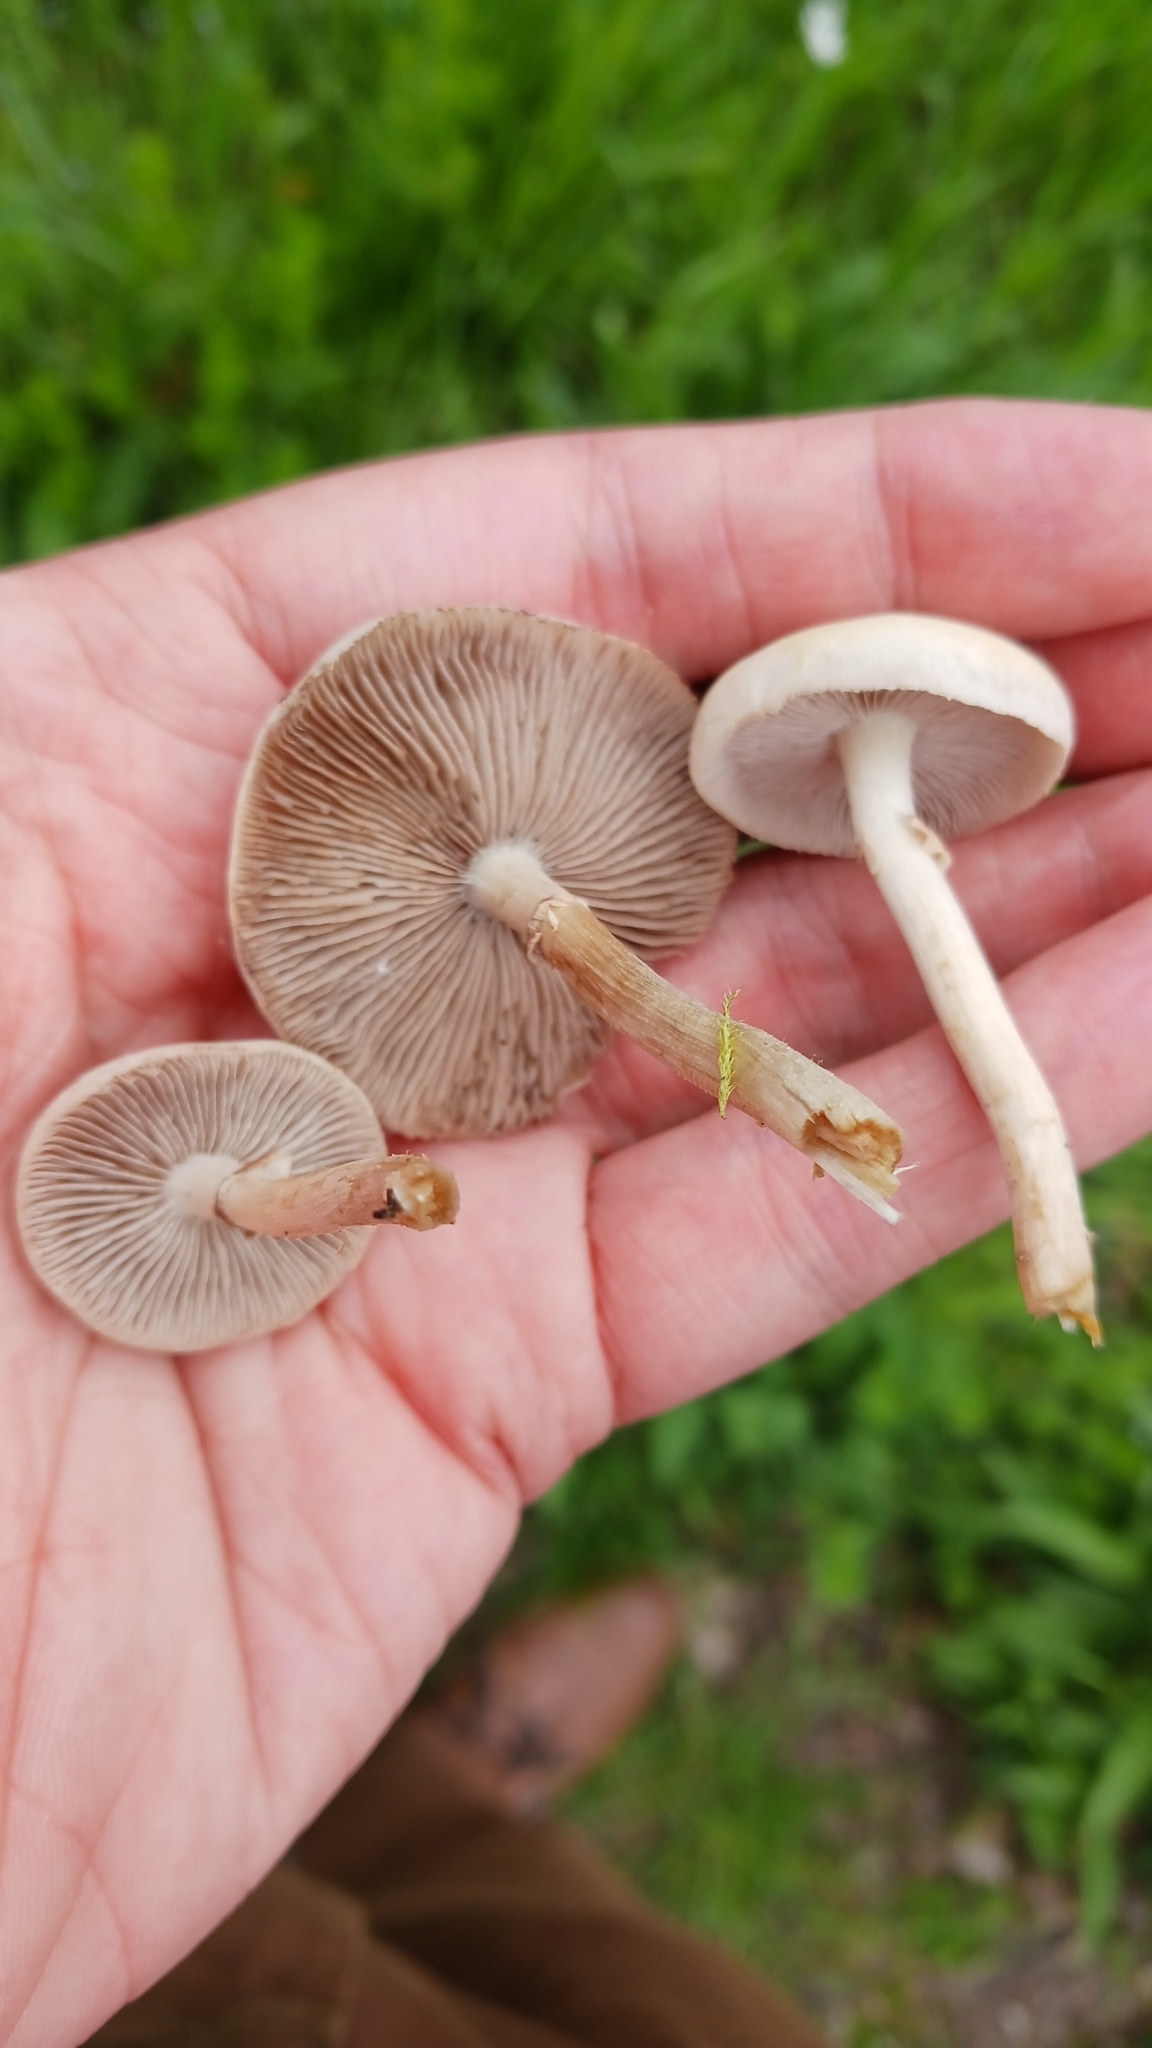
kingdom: Fungi
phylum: Basidiomycota
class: Agaricomycetes
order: Agaricales
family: Strophariaceae
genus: Agrocybe
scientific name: Agrocybe praecox
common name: Spring fieldcap
